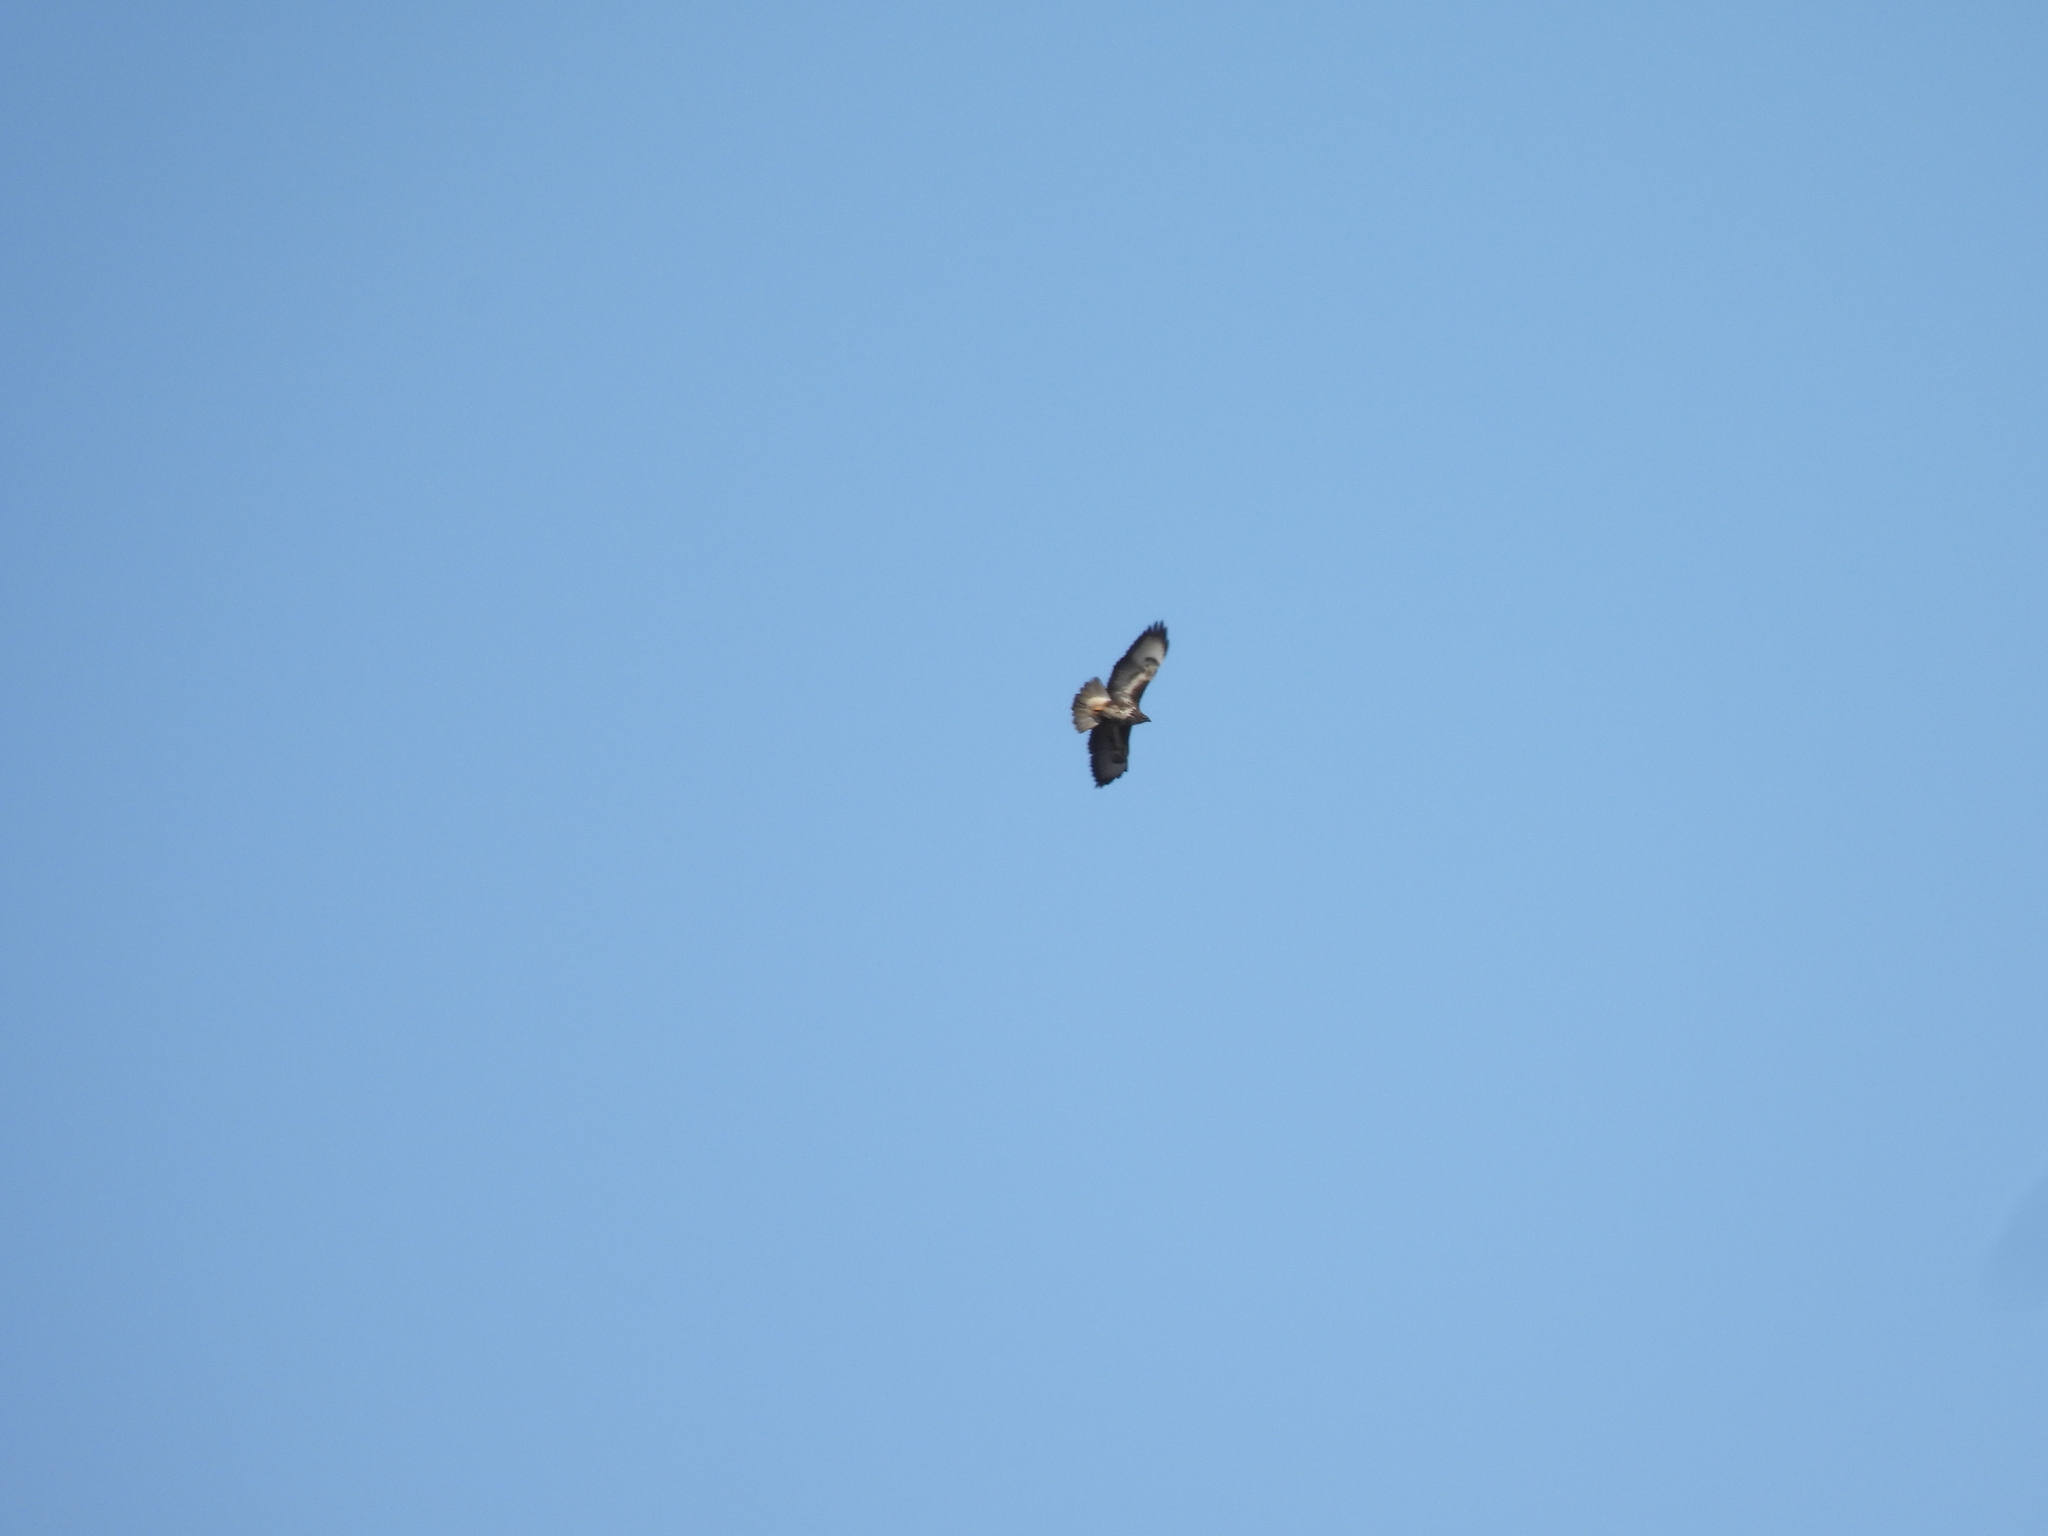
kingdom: Animalia
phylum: Chordata
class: Aves
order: Accipitriformes
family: Accipitridae
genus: Buteo
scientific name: Buteo buteo
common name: Common buzzard
